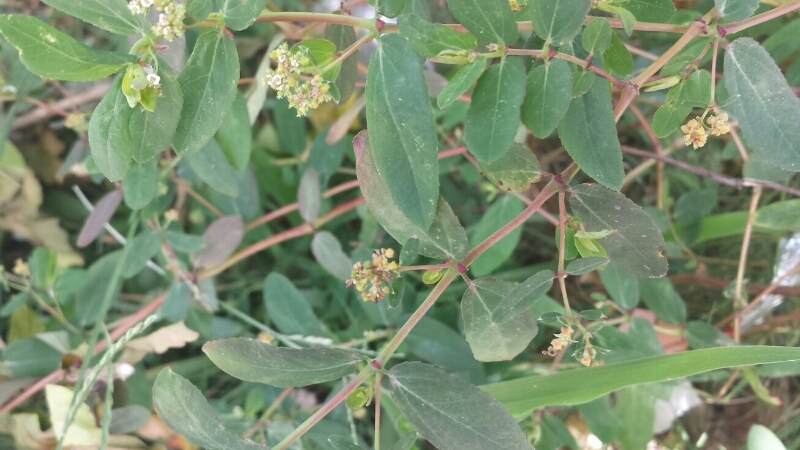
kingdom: Plantae
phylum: Tracheophyta
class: Magnoliopsida
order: Malpighiales
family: Euphorbiaceae
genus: Euphorbia
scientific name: Euphorbia hypericifolia
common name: Graceful sandmat
